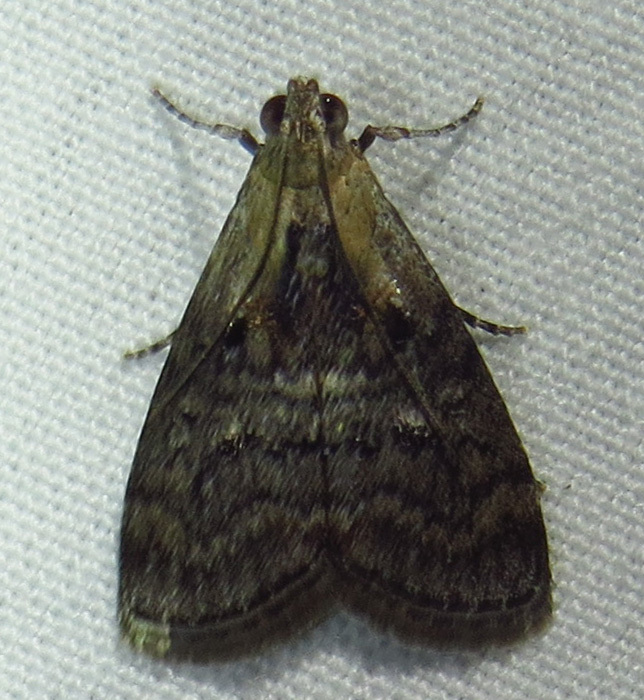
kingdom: Animalia
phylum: Arthropoda
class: Insecta
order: Lepidoptera
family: Pyralidae
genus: Pococera
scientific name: Pococera expandens
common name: Striped oak webworm moth
